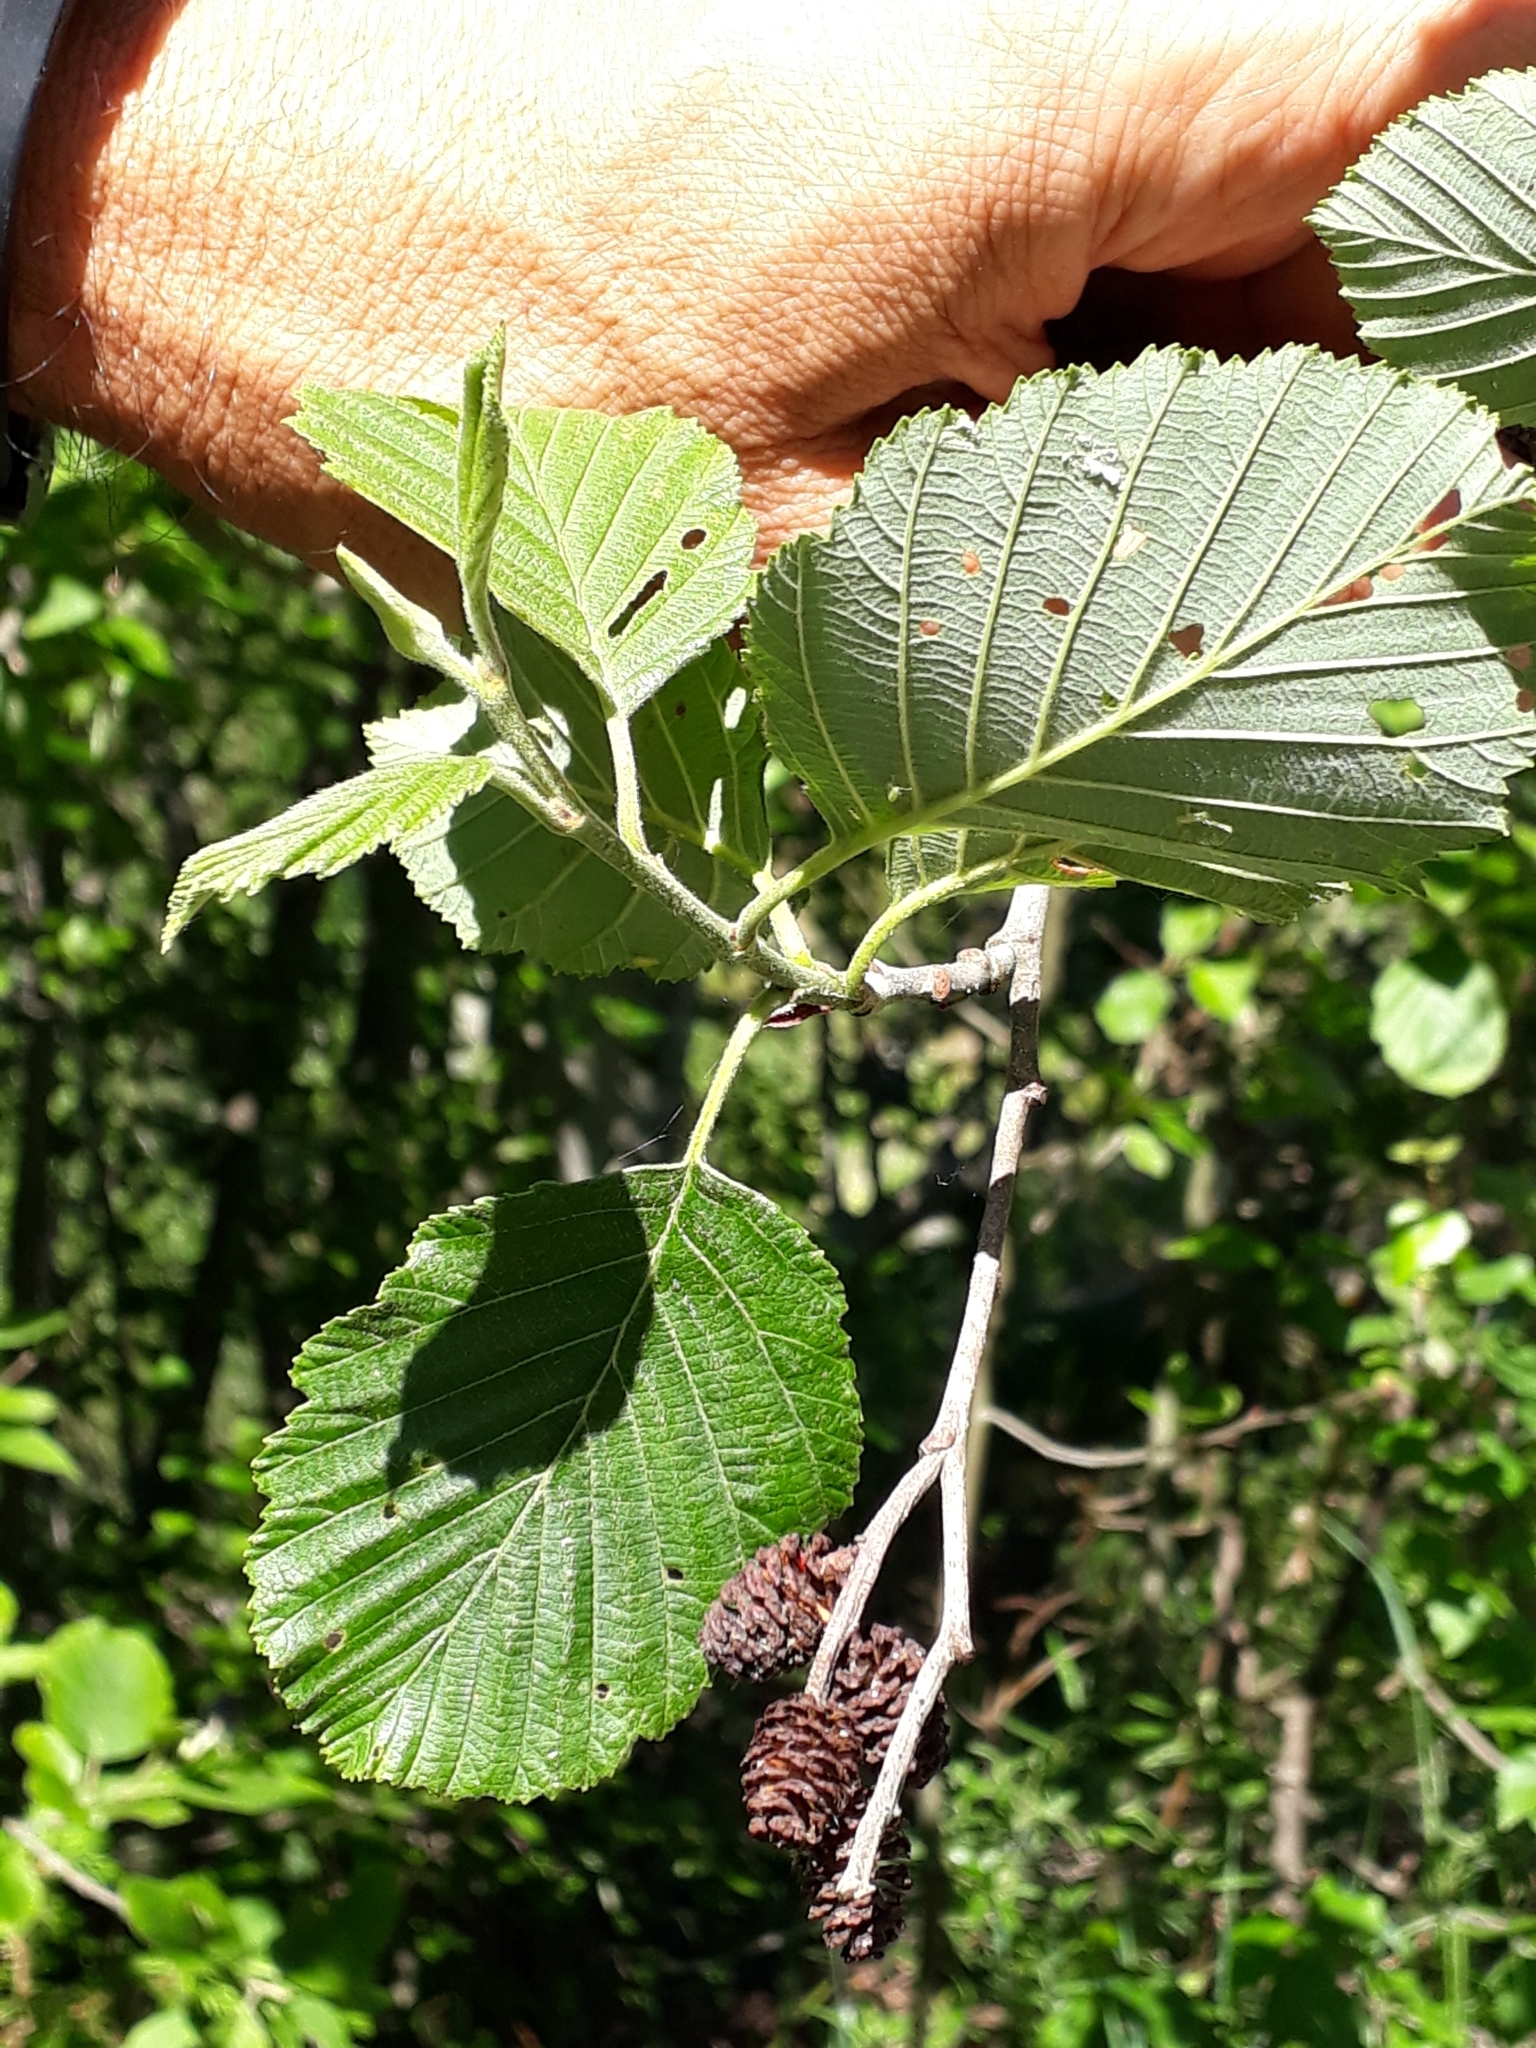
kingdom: Plantae
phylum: Tracheophyta
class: Magnoliopsida
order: Fagales
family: Betulaceae
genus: Alnus
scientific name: Alnus incana
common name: Grey alder
